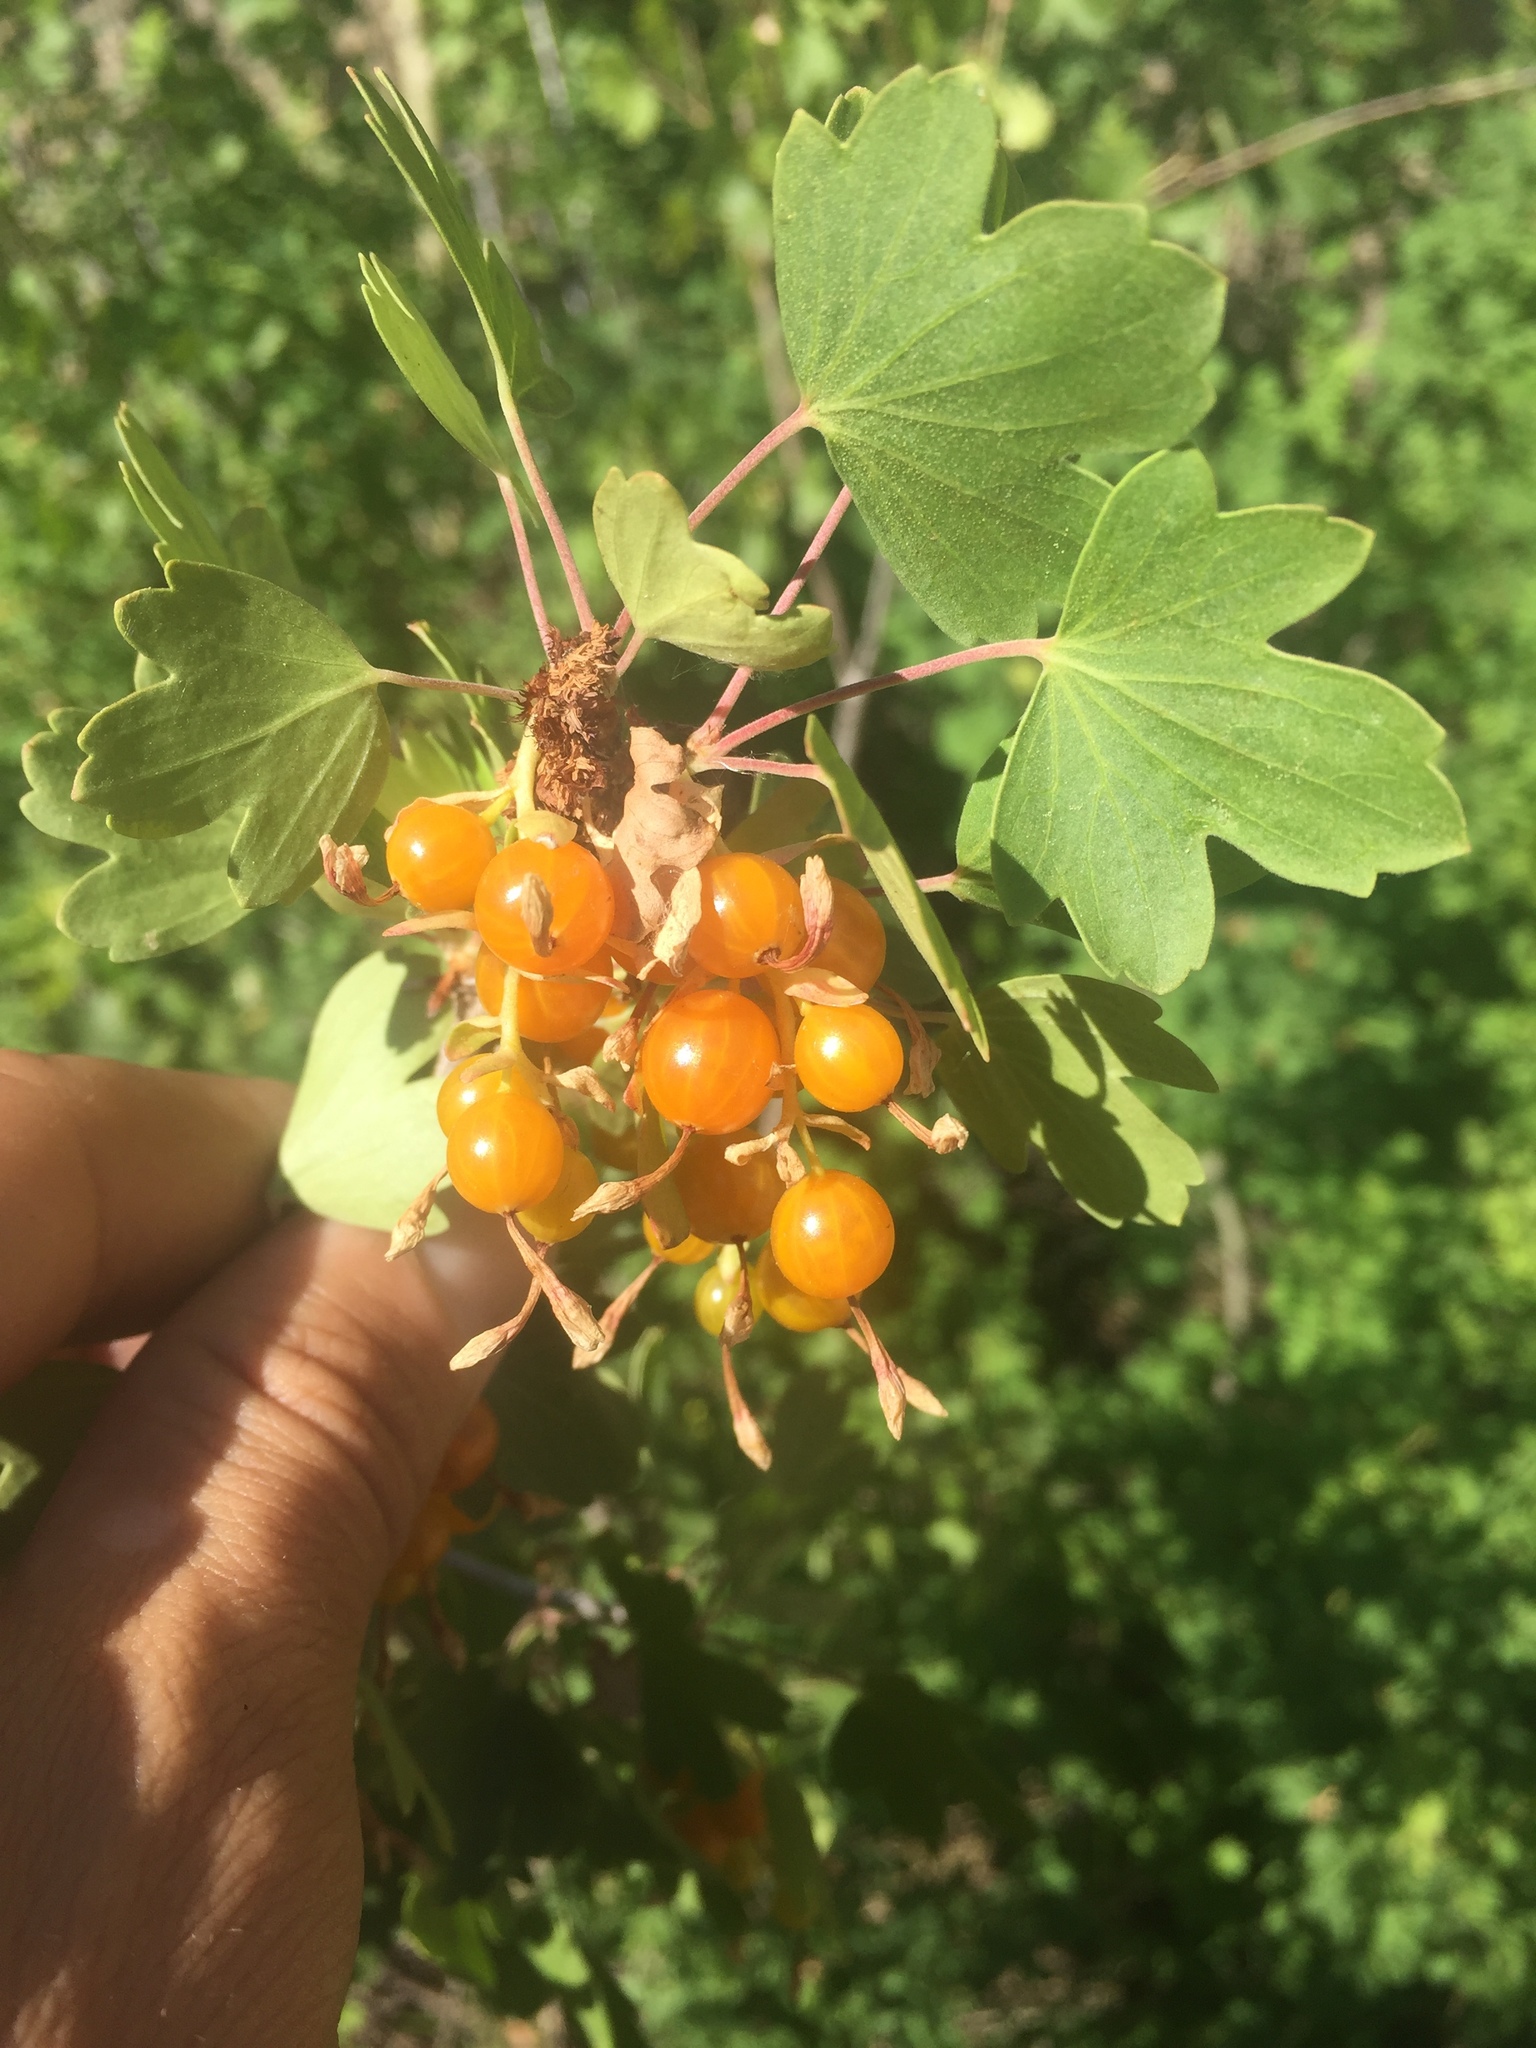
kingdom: Plantae
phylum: Tracheophyta
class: Magnoliopsida
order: Saxifragales
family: Grossulariaceae
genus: Ribes
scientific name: Ribes aureum
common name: Golden currant
